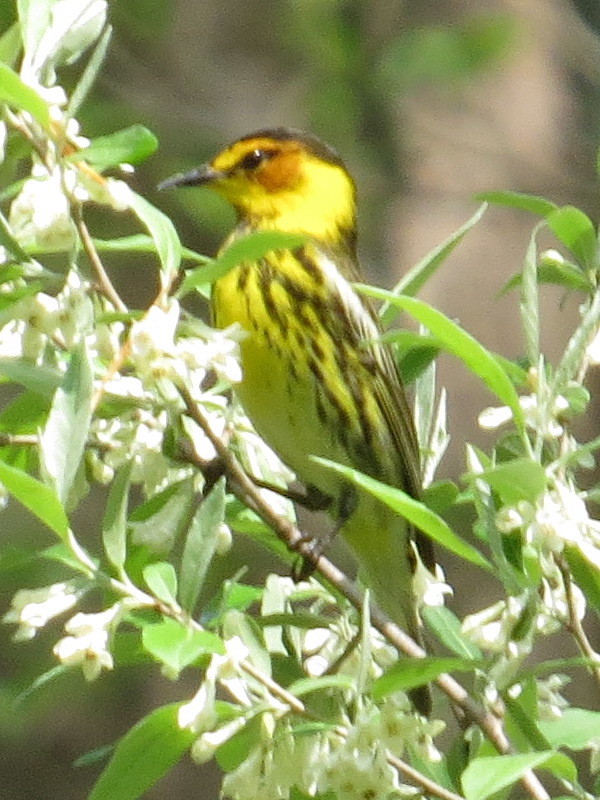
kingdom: Animalia
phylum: Chordata
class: Aves
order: Passeriformes
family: Parulidae
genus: Setophaga
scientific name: Setophaga tigrina
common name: Cape may warbler
